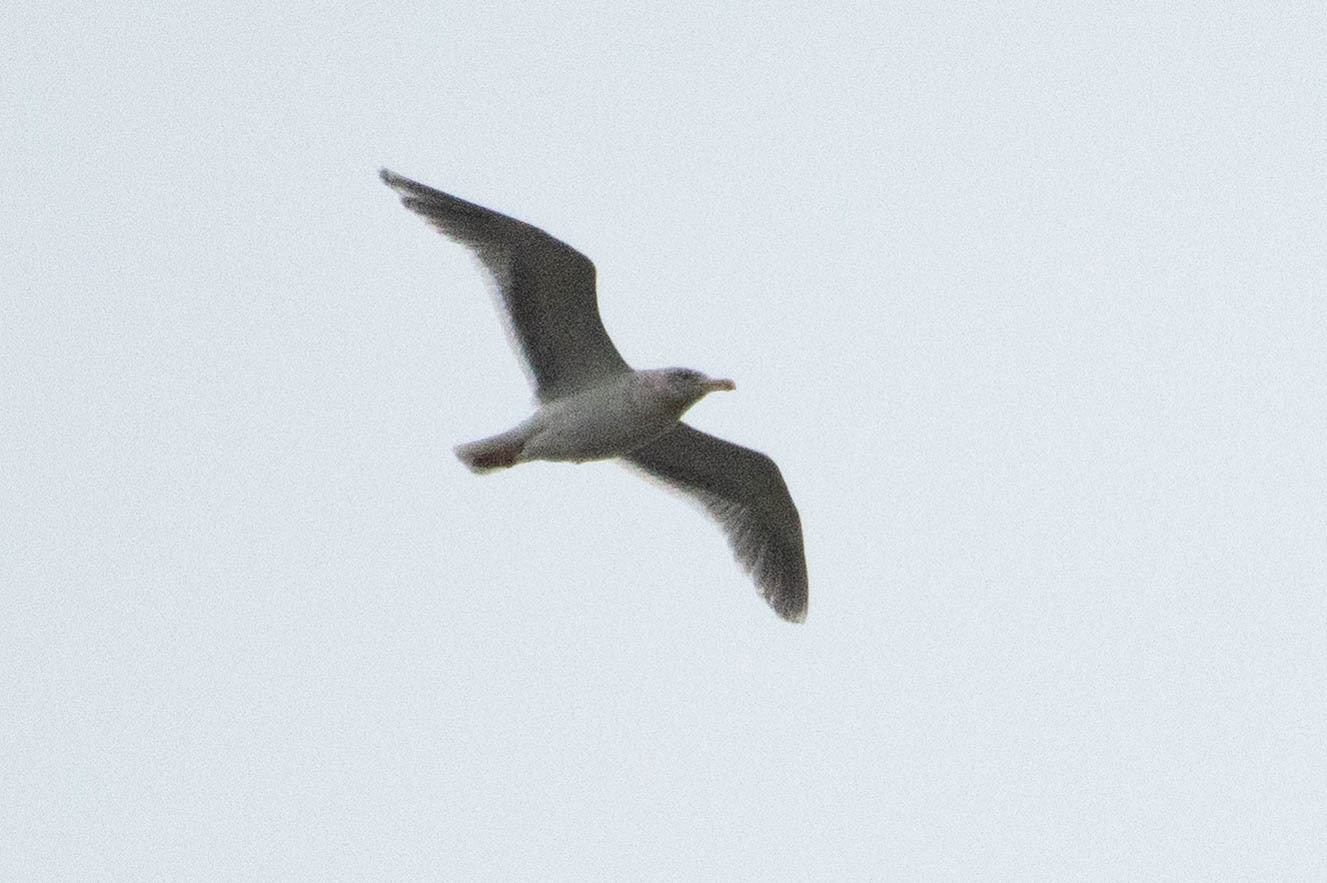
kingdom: Animalia
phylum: Chordata
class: Aves
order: Charadriiformes
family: Laridae
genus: Larus
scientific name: Larus glaucescens
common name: Glaucous-winged gull
